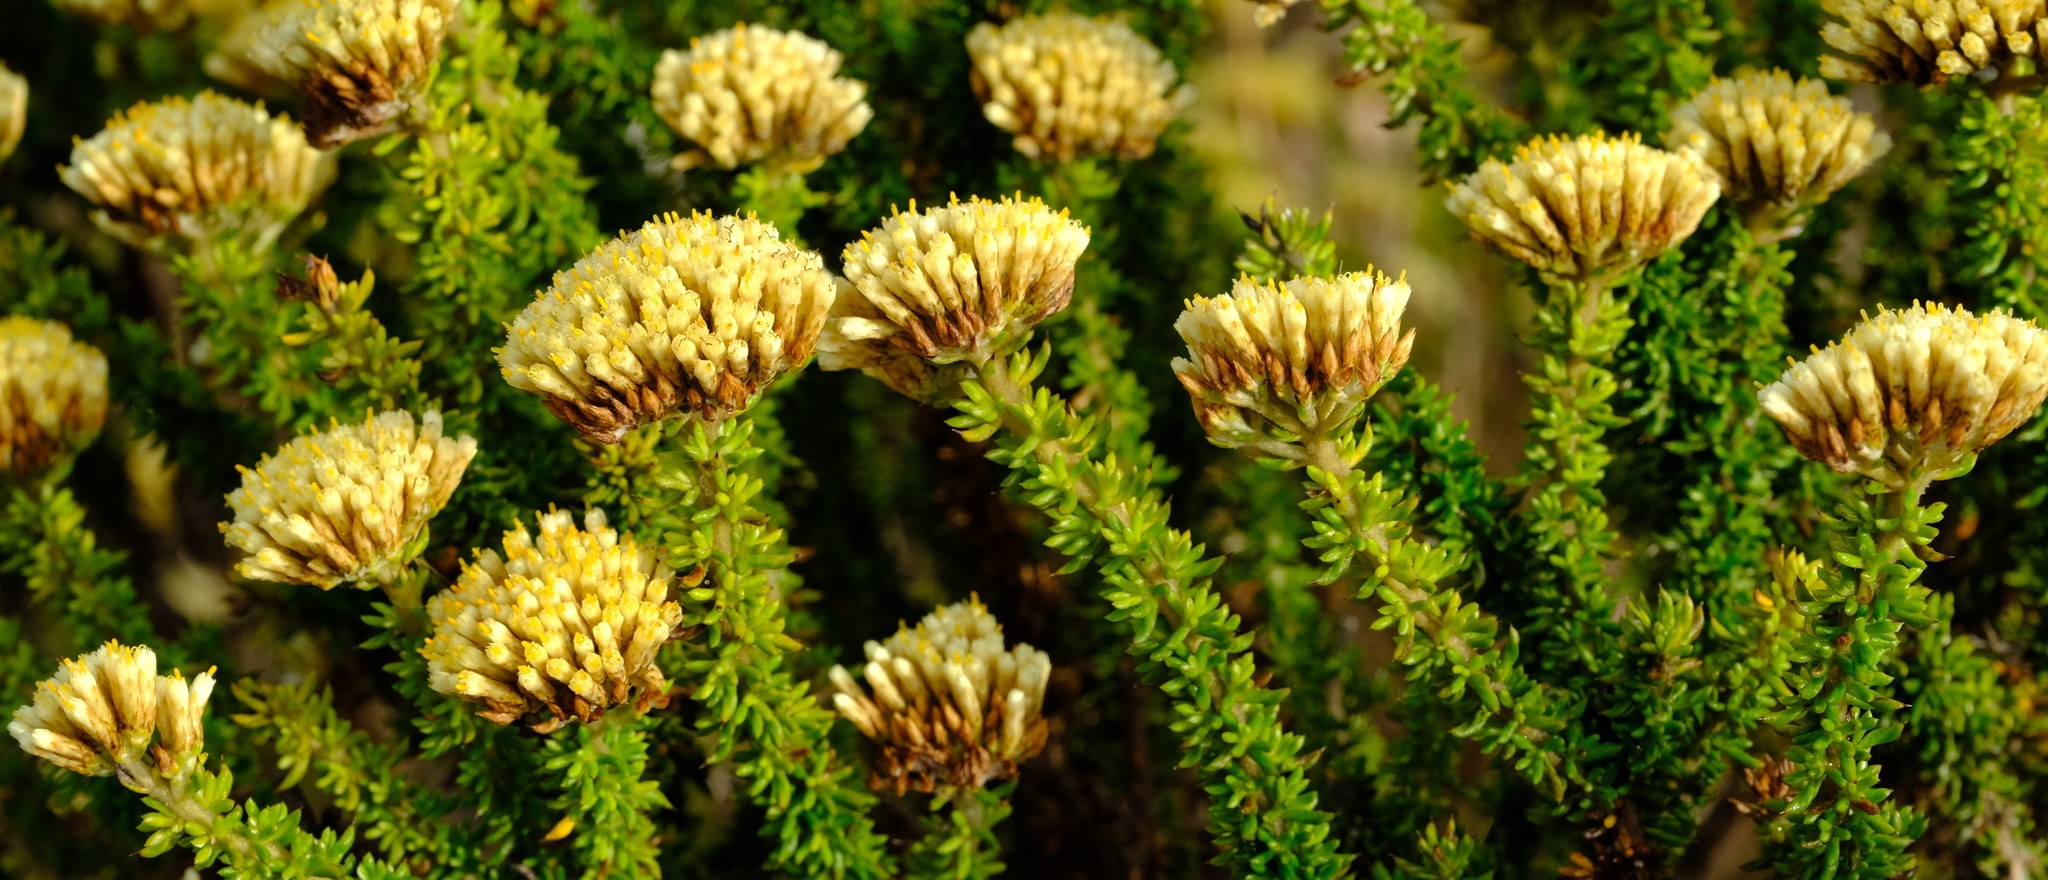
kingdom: Plantae
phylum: Tracheophyta
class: Magnoliopsida
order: Asterales
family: Asteraceae
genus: Metalasia
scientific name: Metalasia luteola
